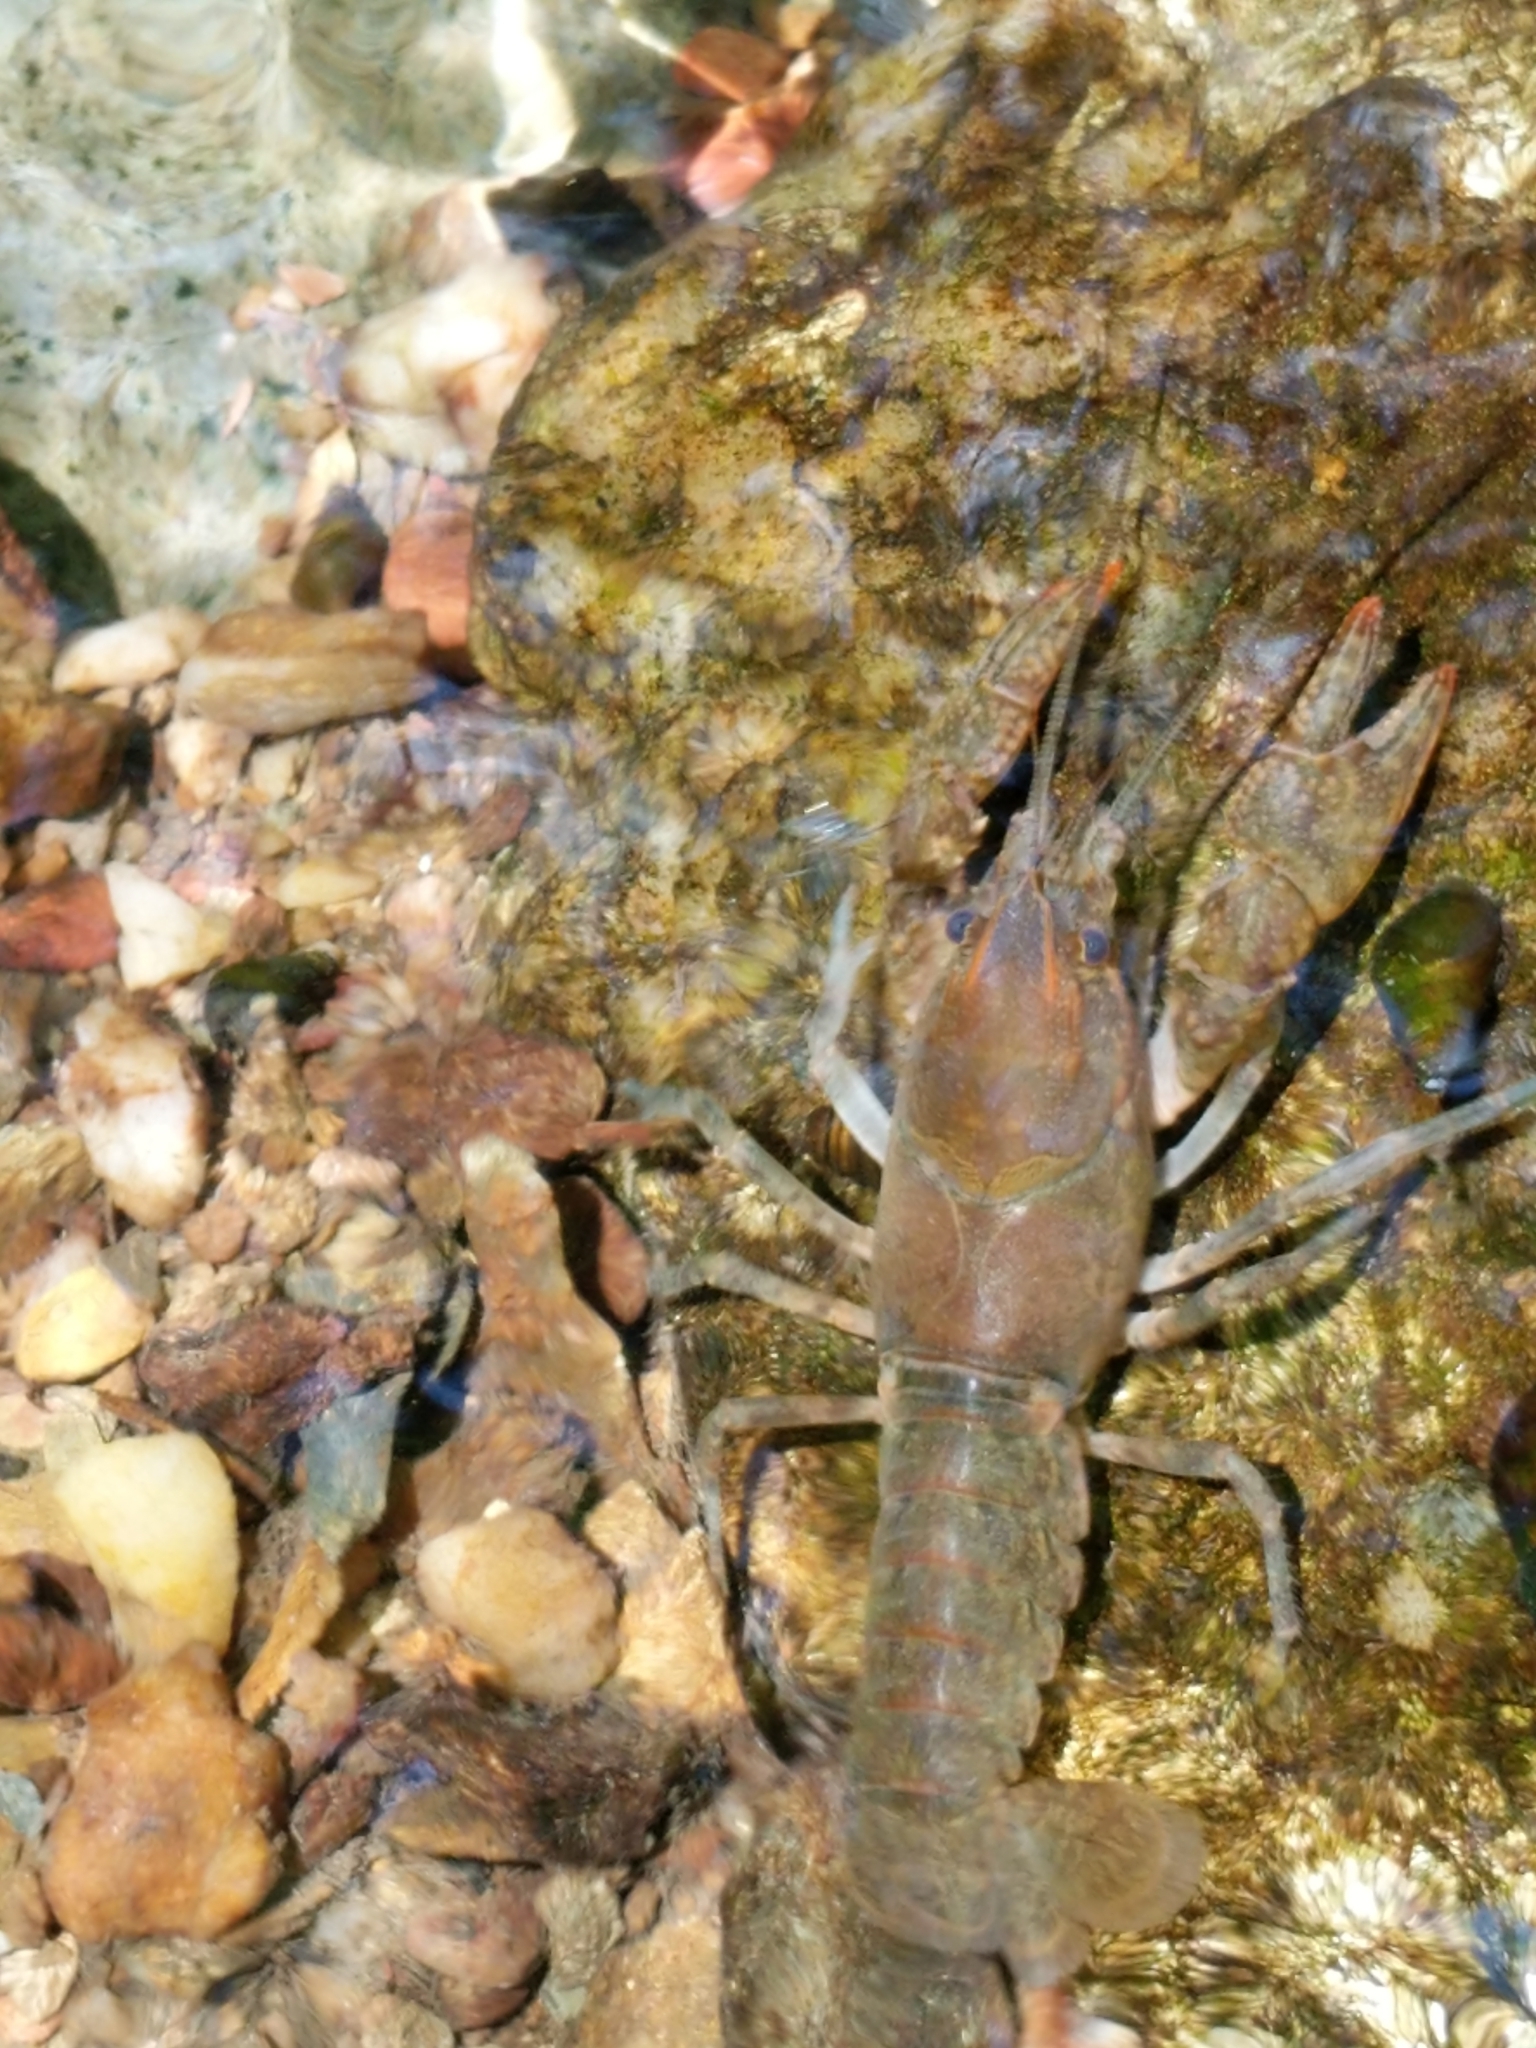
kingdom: Animalia
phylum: Arthropoda
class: Malacostraca
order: Decapoda
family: Cambaridae
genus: Cambarus
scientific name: Cambarus latimanus
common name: Variable crayfish
